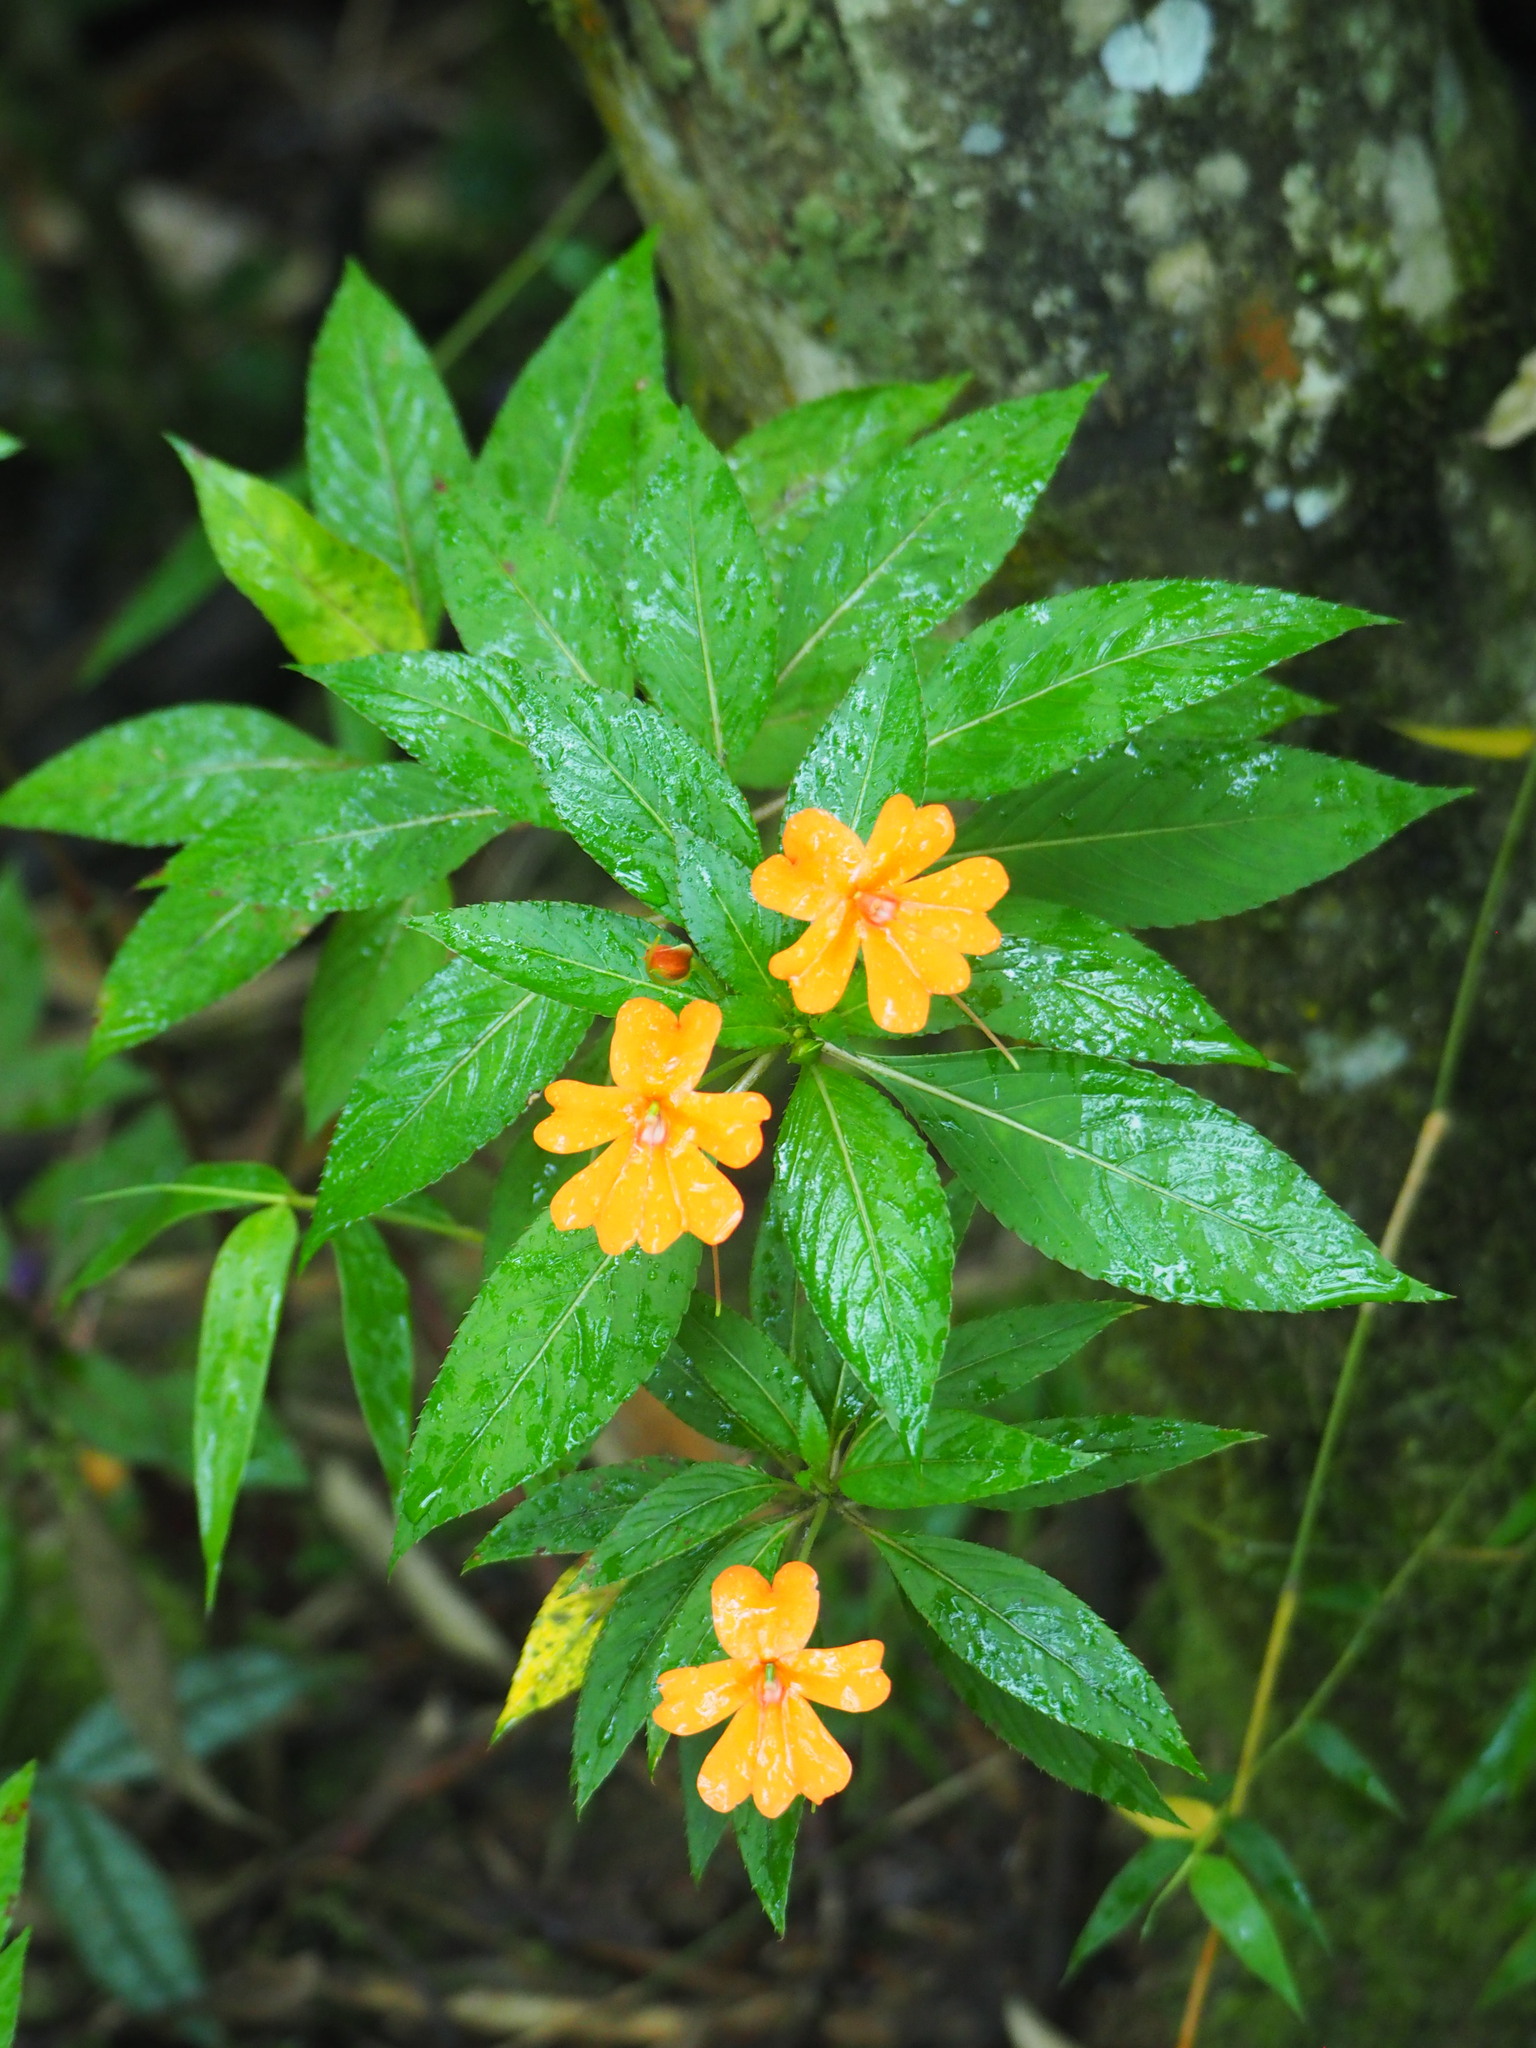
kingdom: Plantae
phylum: Tracheophyta
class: Magnoliopsida
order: Ericales
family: Balsaminaceae
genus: Impatiens
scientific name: Impatiens hawkeri
